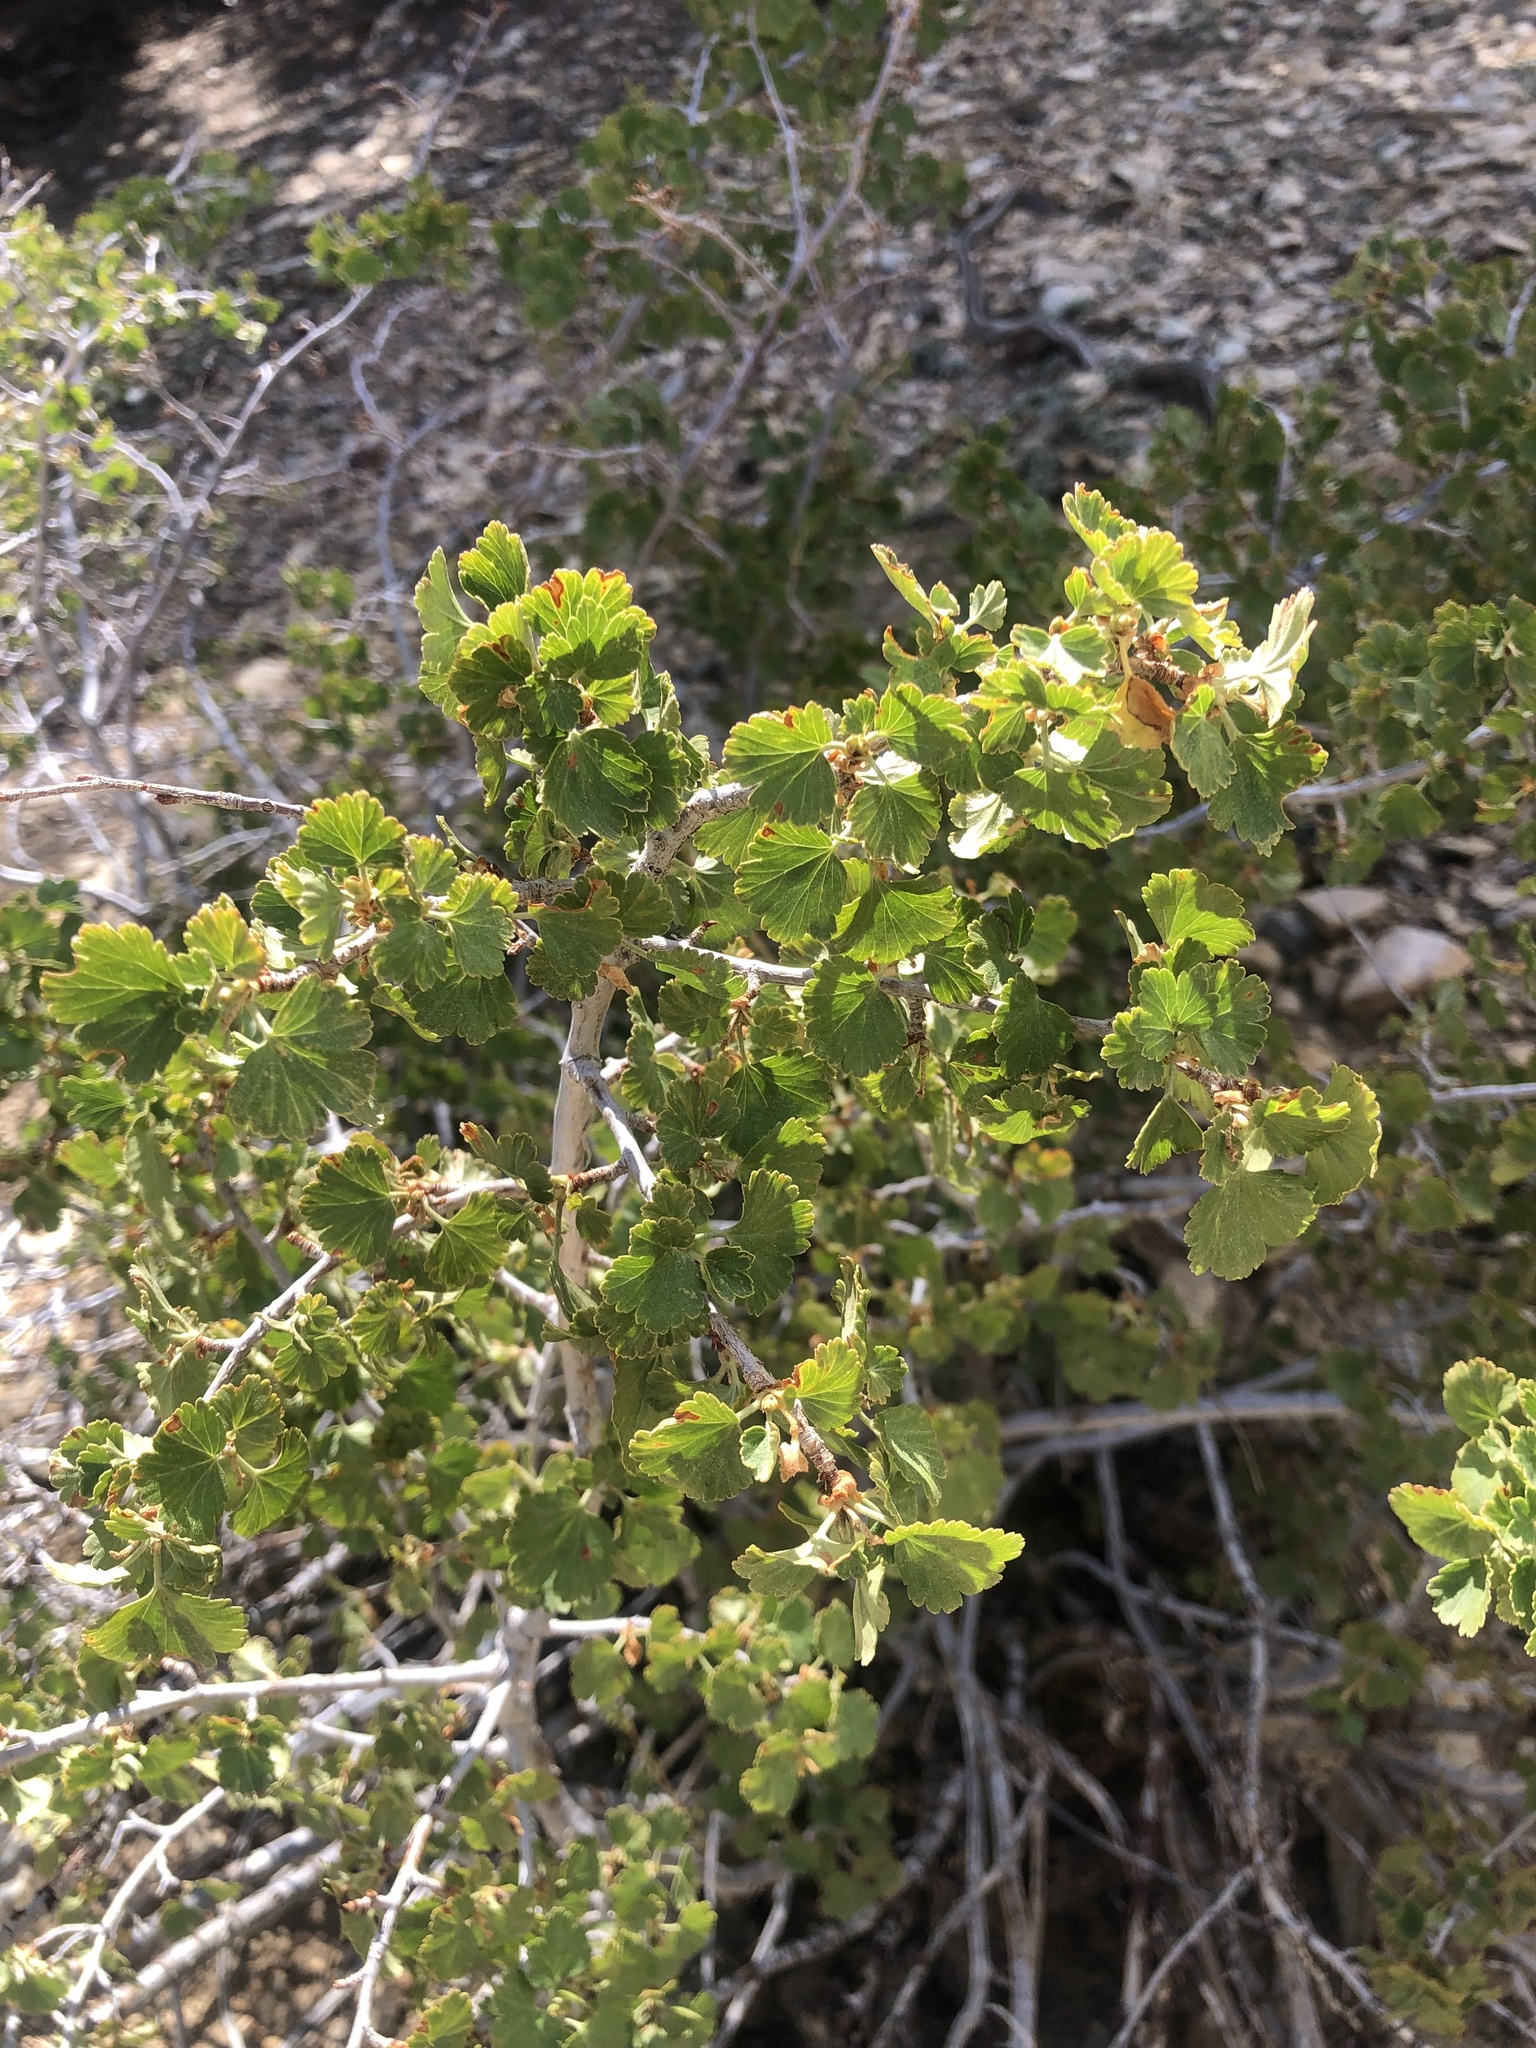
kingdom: Plantae
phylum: Tracheophyta
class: Magnoliopsida
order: Saxifragales
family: Grossulariaceae
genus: Ribes
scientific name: Ribes cereum
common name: Wax currant
